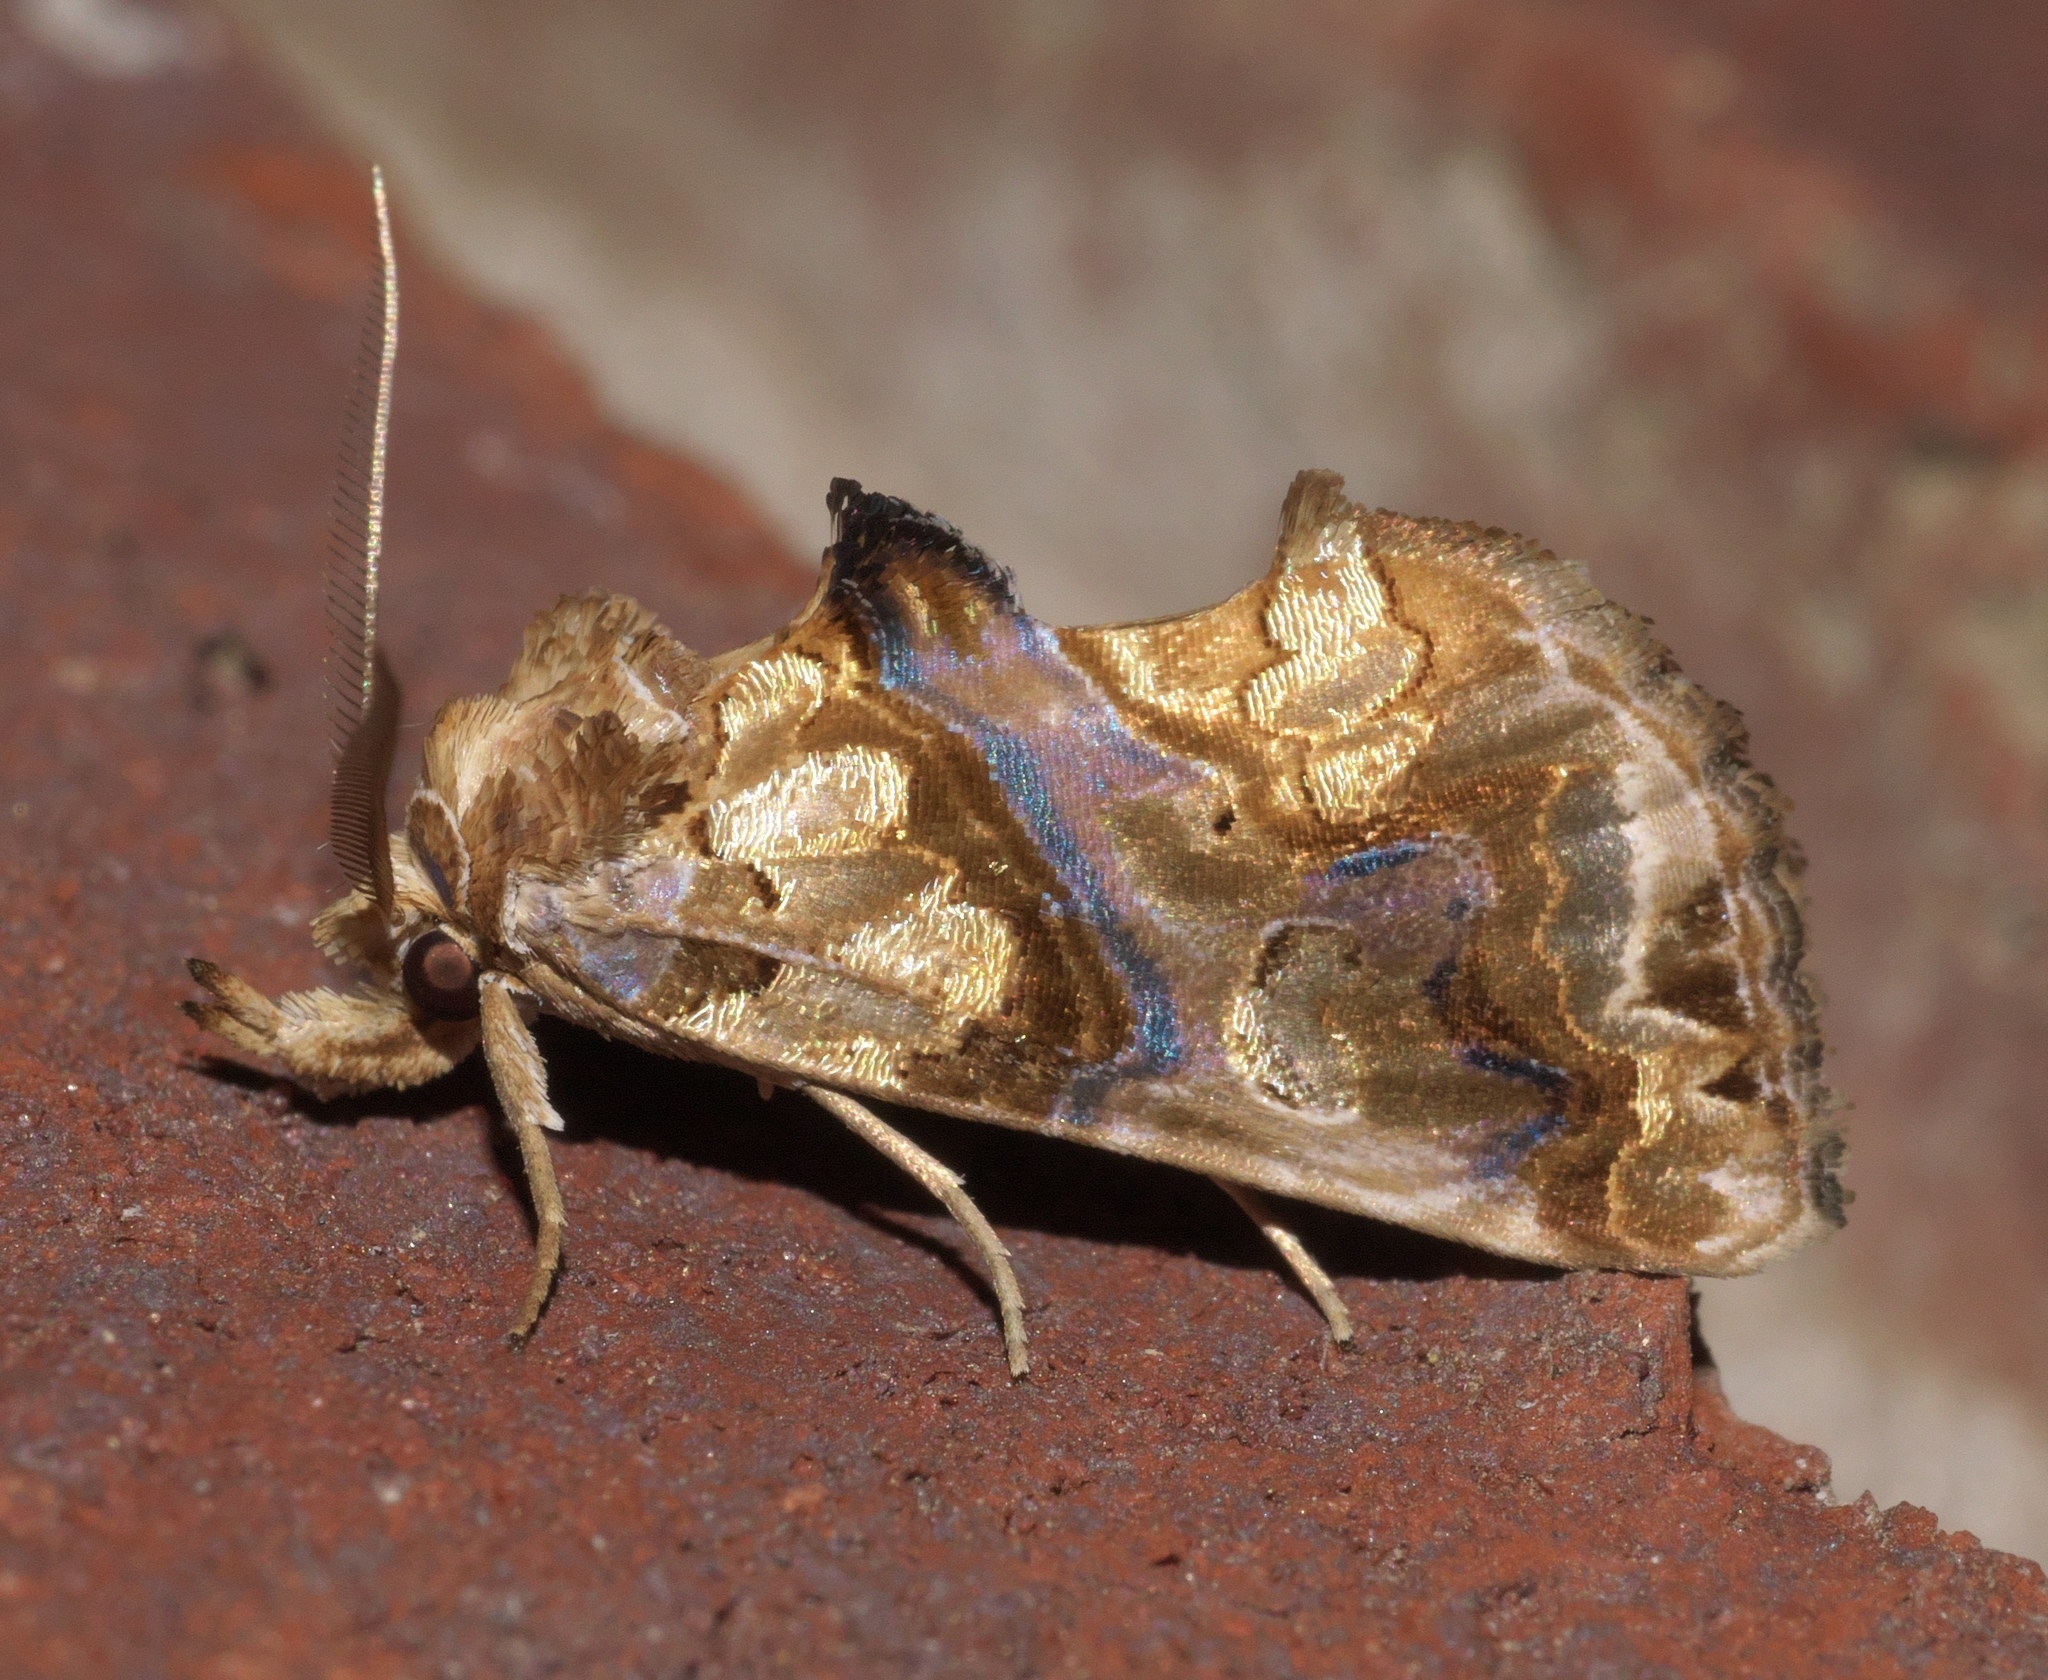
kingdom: Animalia
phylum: Arthropoda
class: Insecta
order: Lepidoptera
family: Erebidae
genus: Plusiodonta
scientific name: Plusiodonta compressipalpis
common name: Moonseed moth
